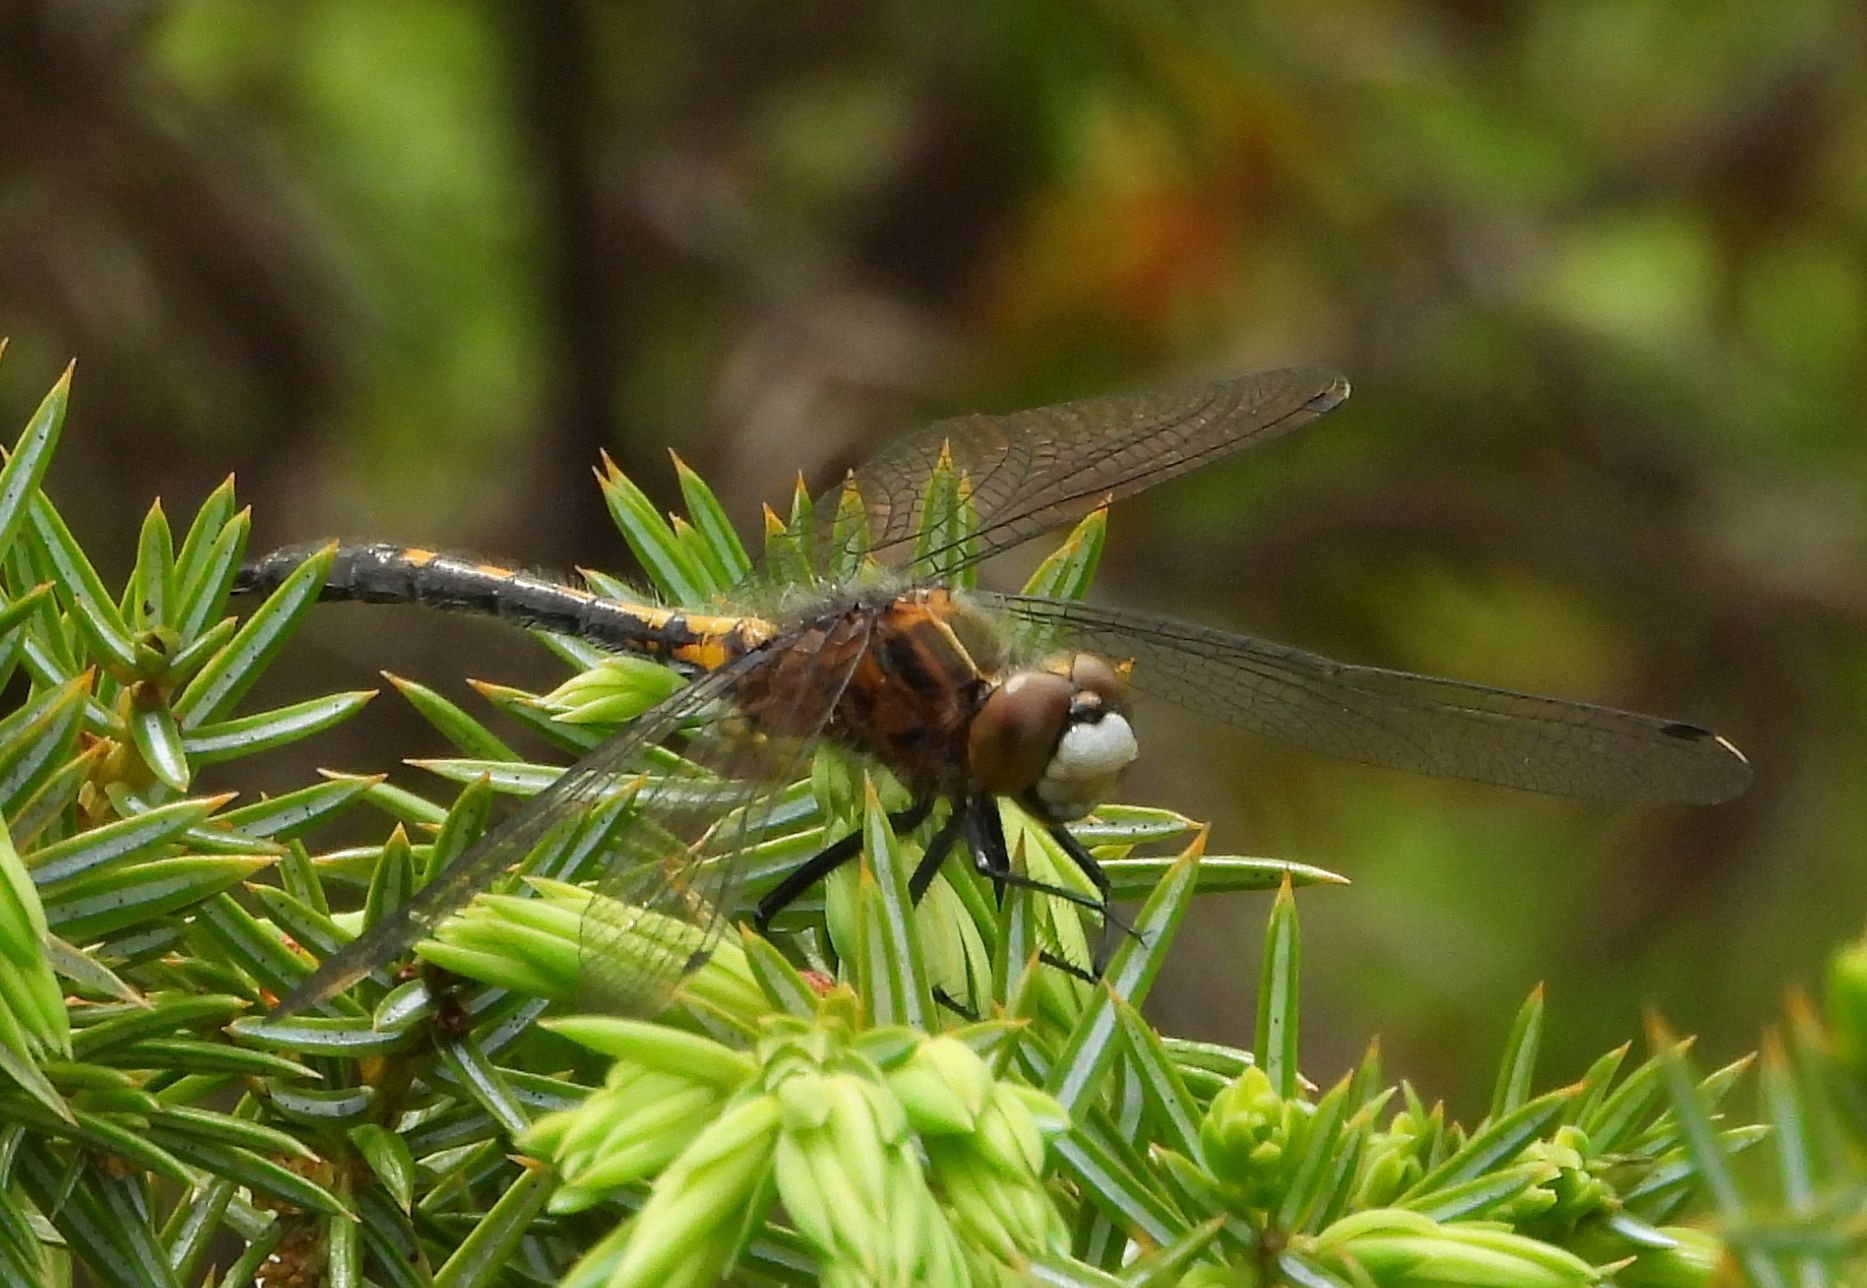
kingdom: Animalia
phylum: Arthropoda
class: Insecta
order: Odonata
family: Libellulidae
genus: Leucorrhinia
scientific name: Leucorrhinia intacta
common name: Dot-tailed whiteface
